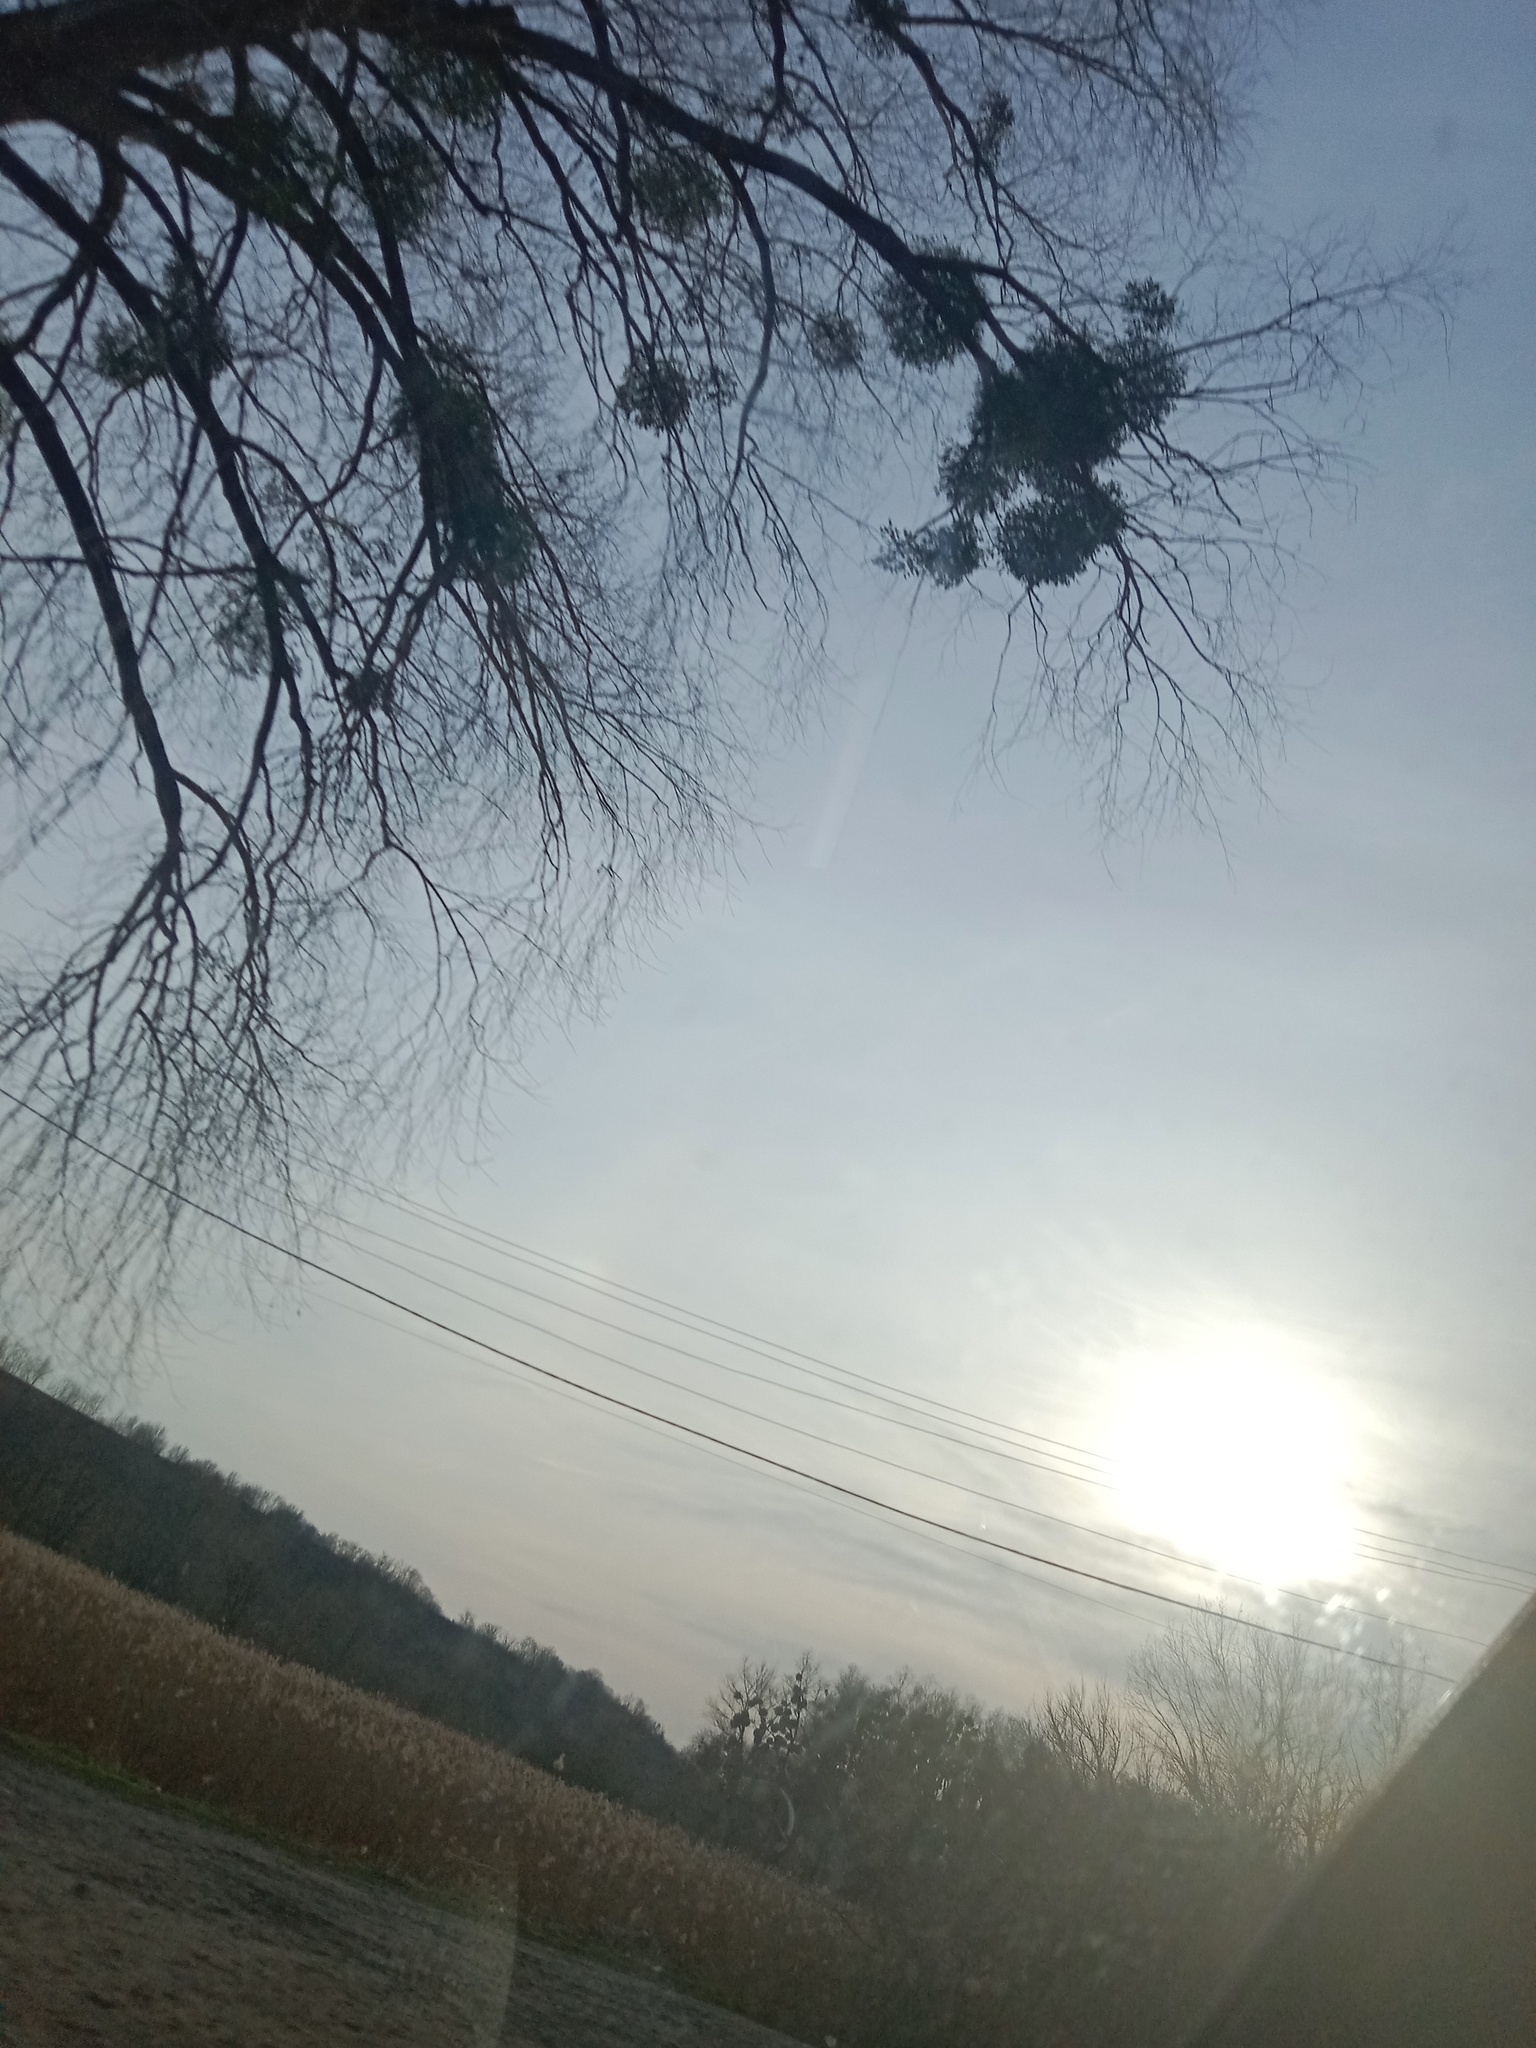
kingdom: Plantae
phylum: Tracheophyta
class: Magnoliopsida
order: Santalales
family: Viscaceae
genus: Viscum
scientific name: Viscum album
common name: Mistletoe
